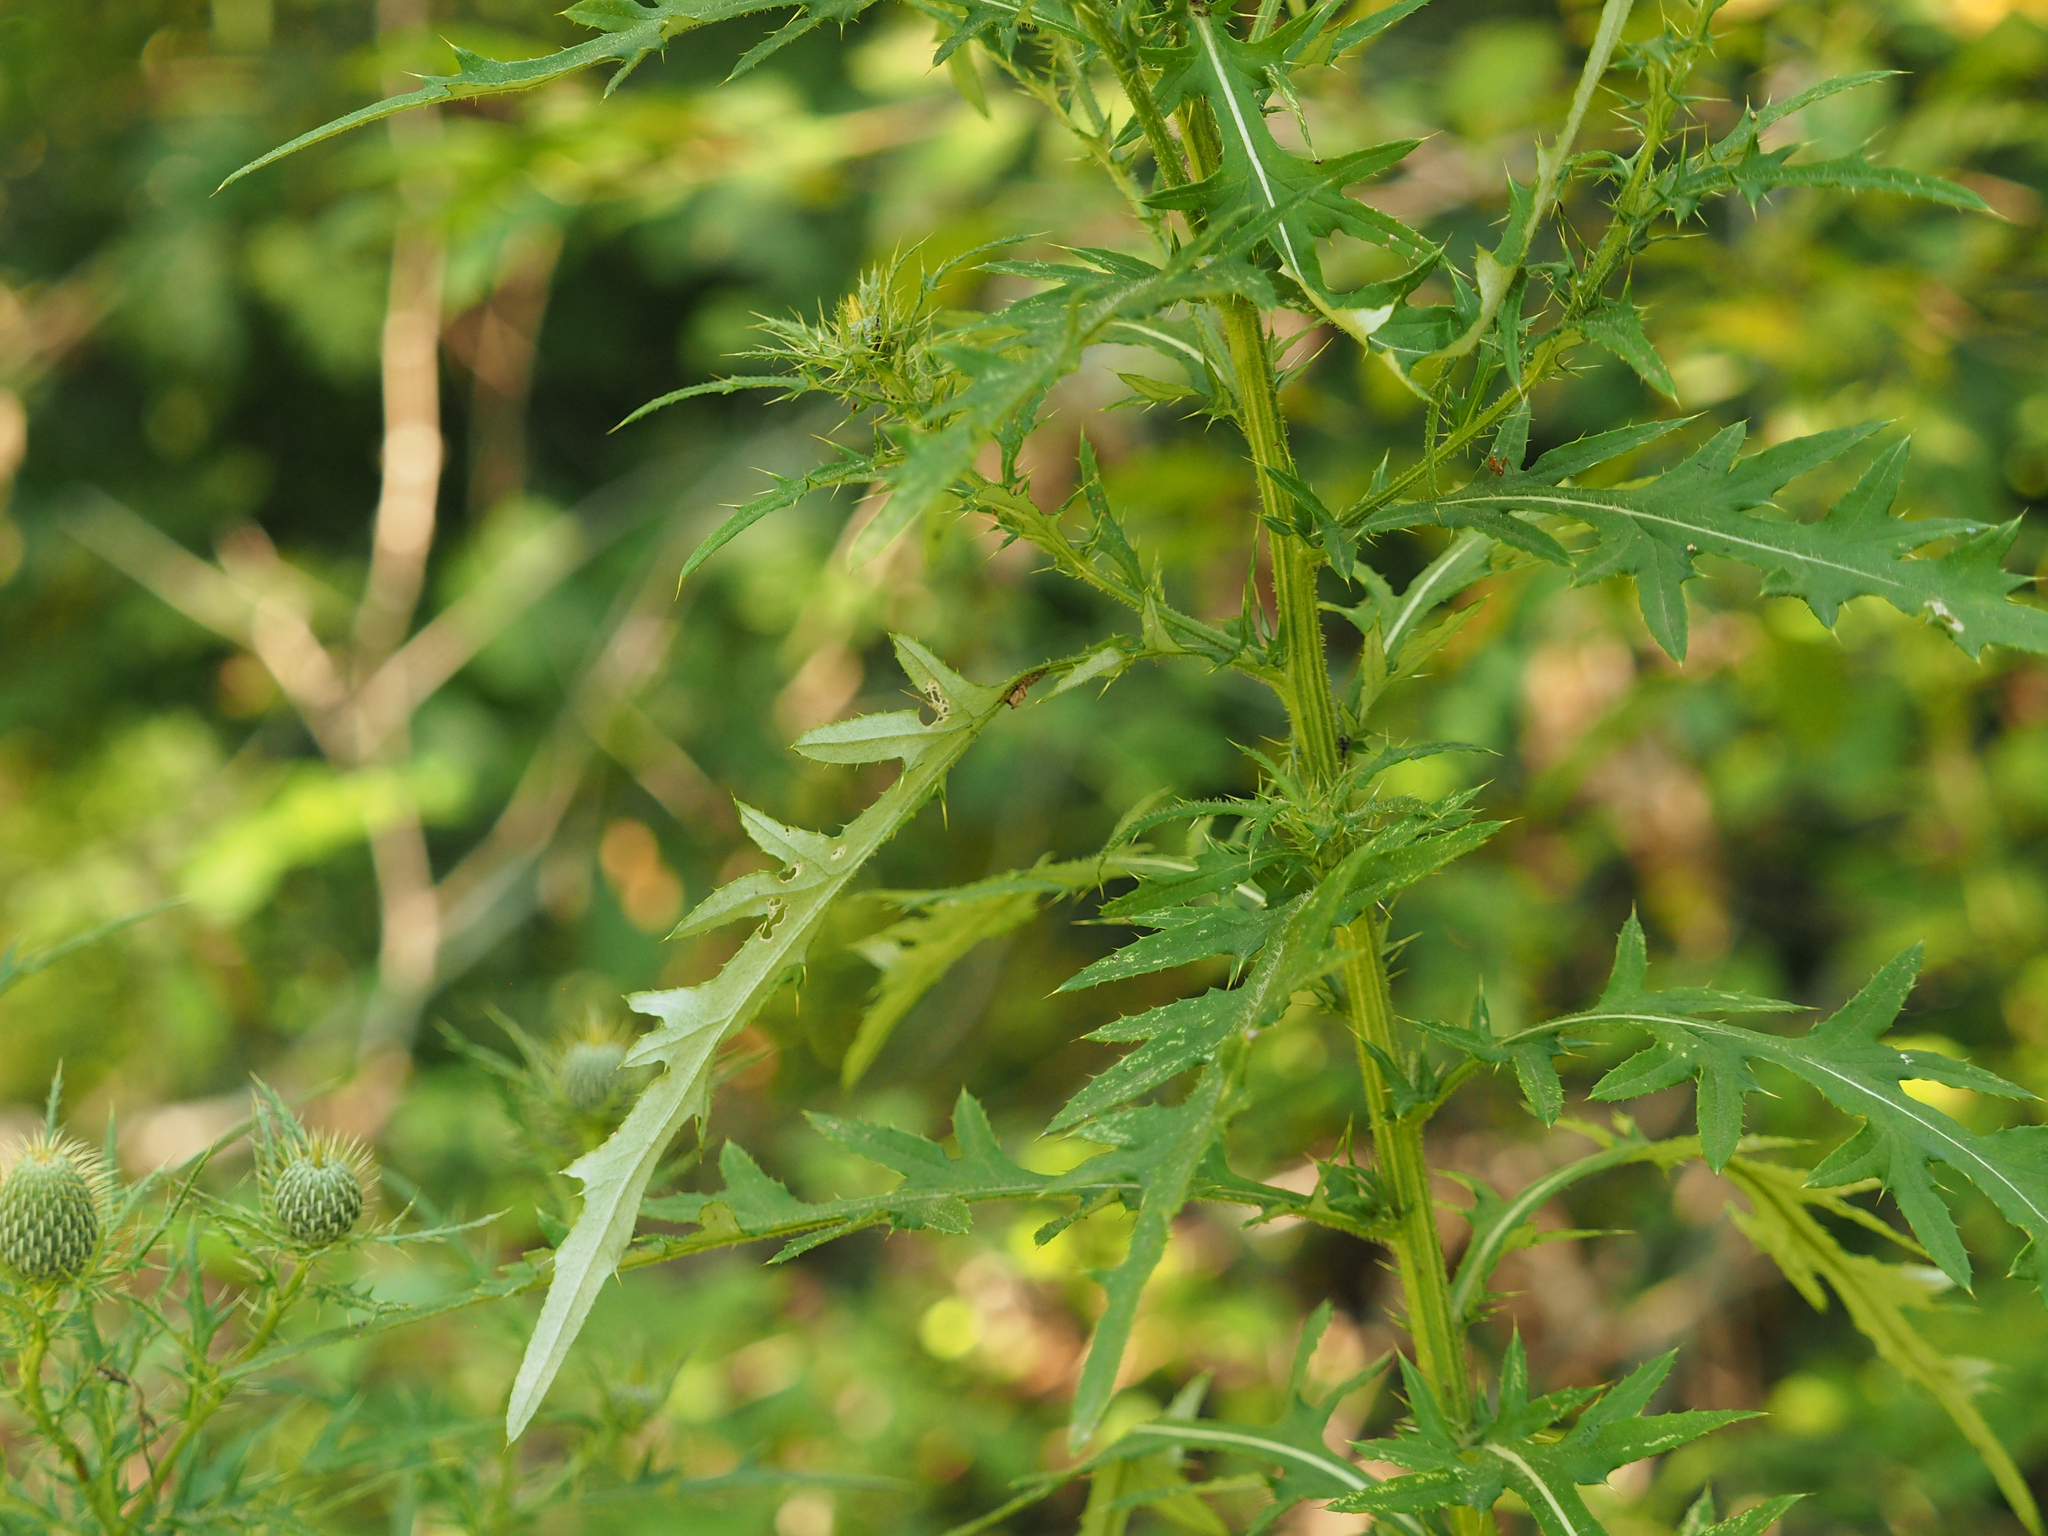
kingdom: Plantae
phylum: Tracheophyta
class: Magnoliopsida
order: Asterales
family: Asteraceae
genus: Cirsium
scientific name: Cirsium discolor
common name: Field thistle
